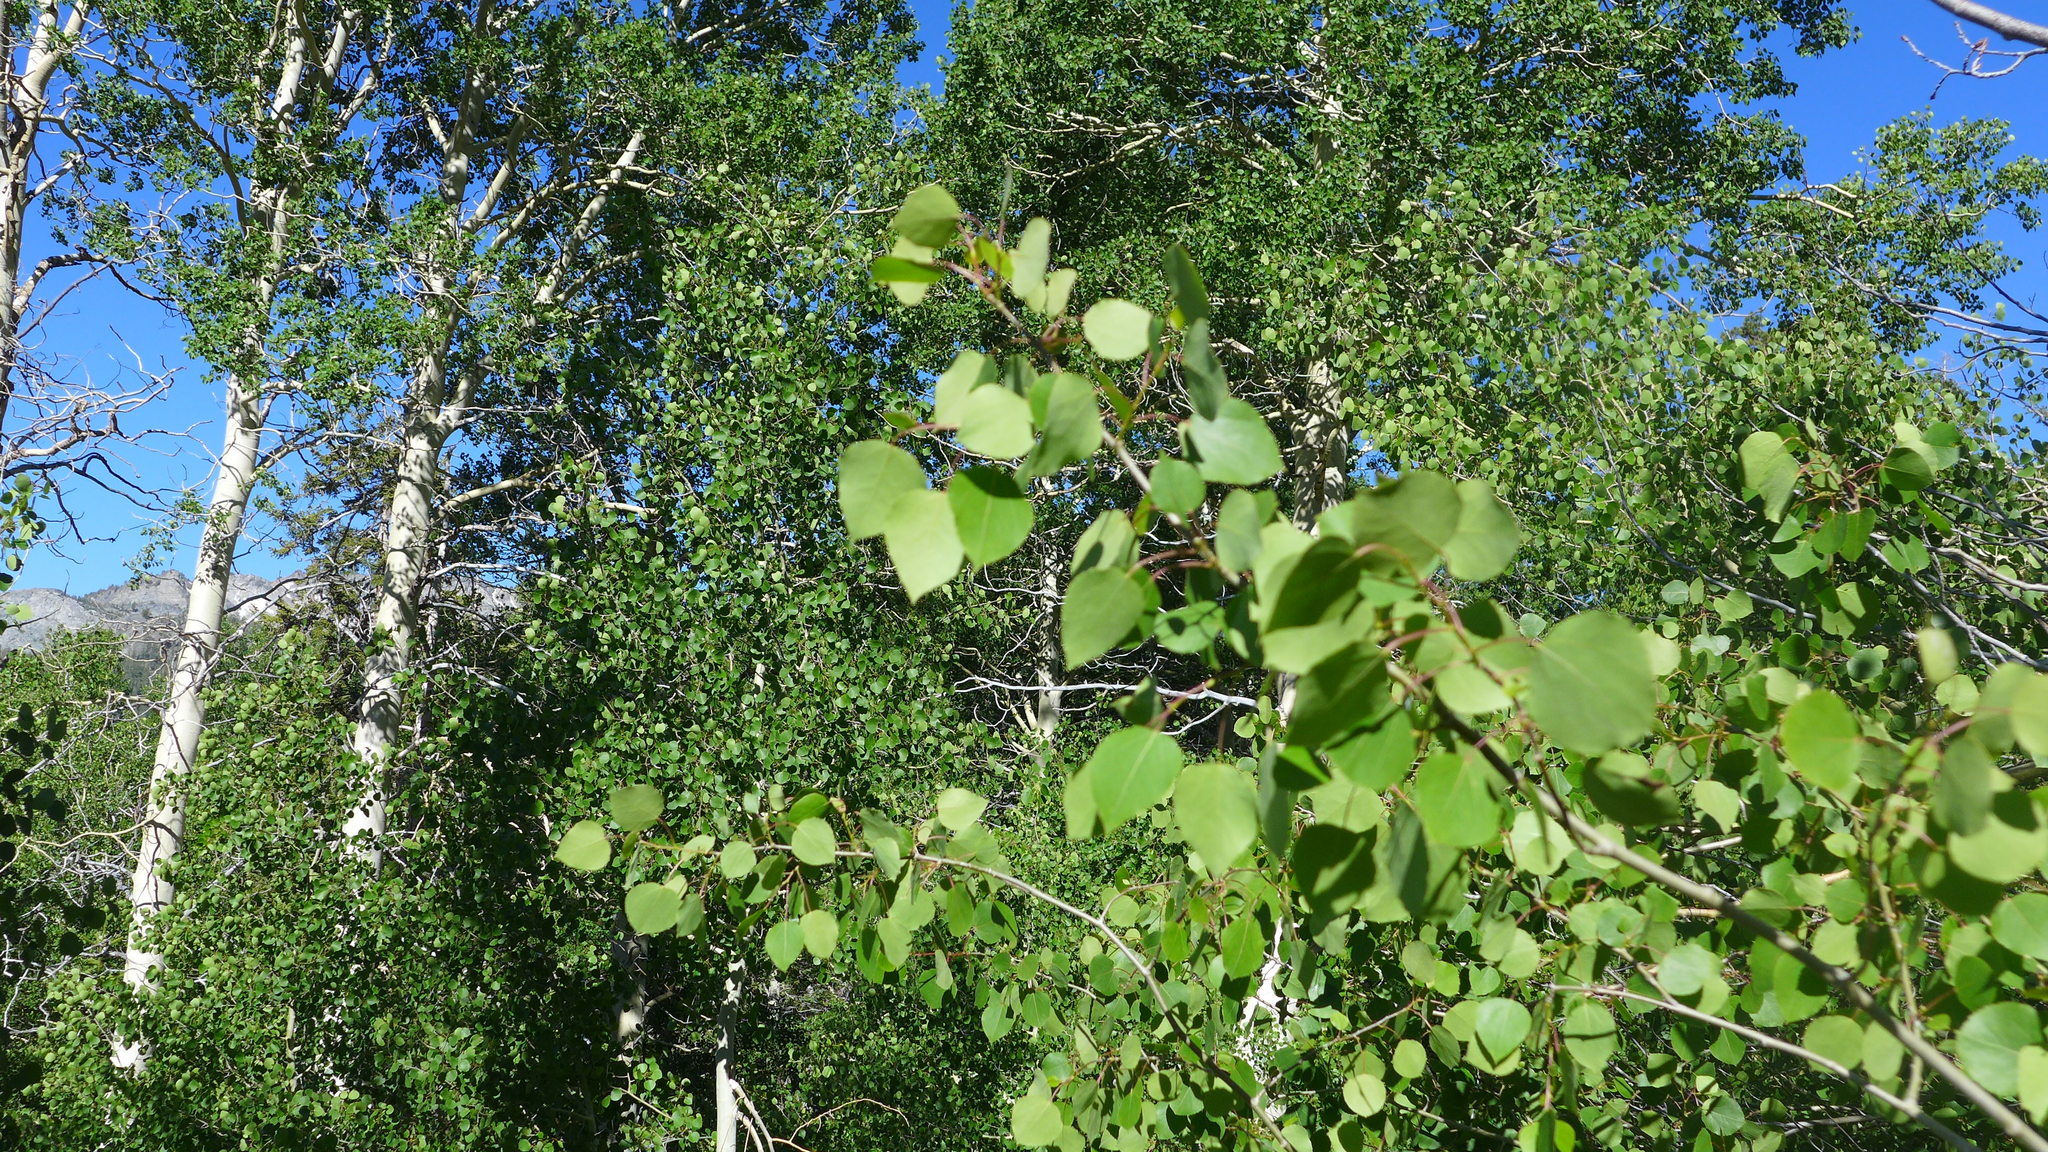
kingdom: Plantae
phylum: Tracheophyta
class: Magnoliopsida
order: Malpighiales
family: Salicaceae
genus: Populus
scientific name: Populus tremuloides
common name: Quaking aspen
